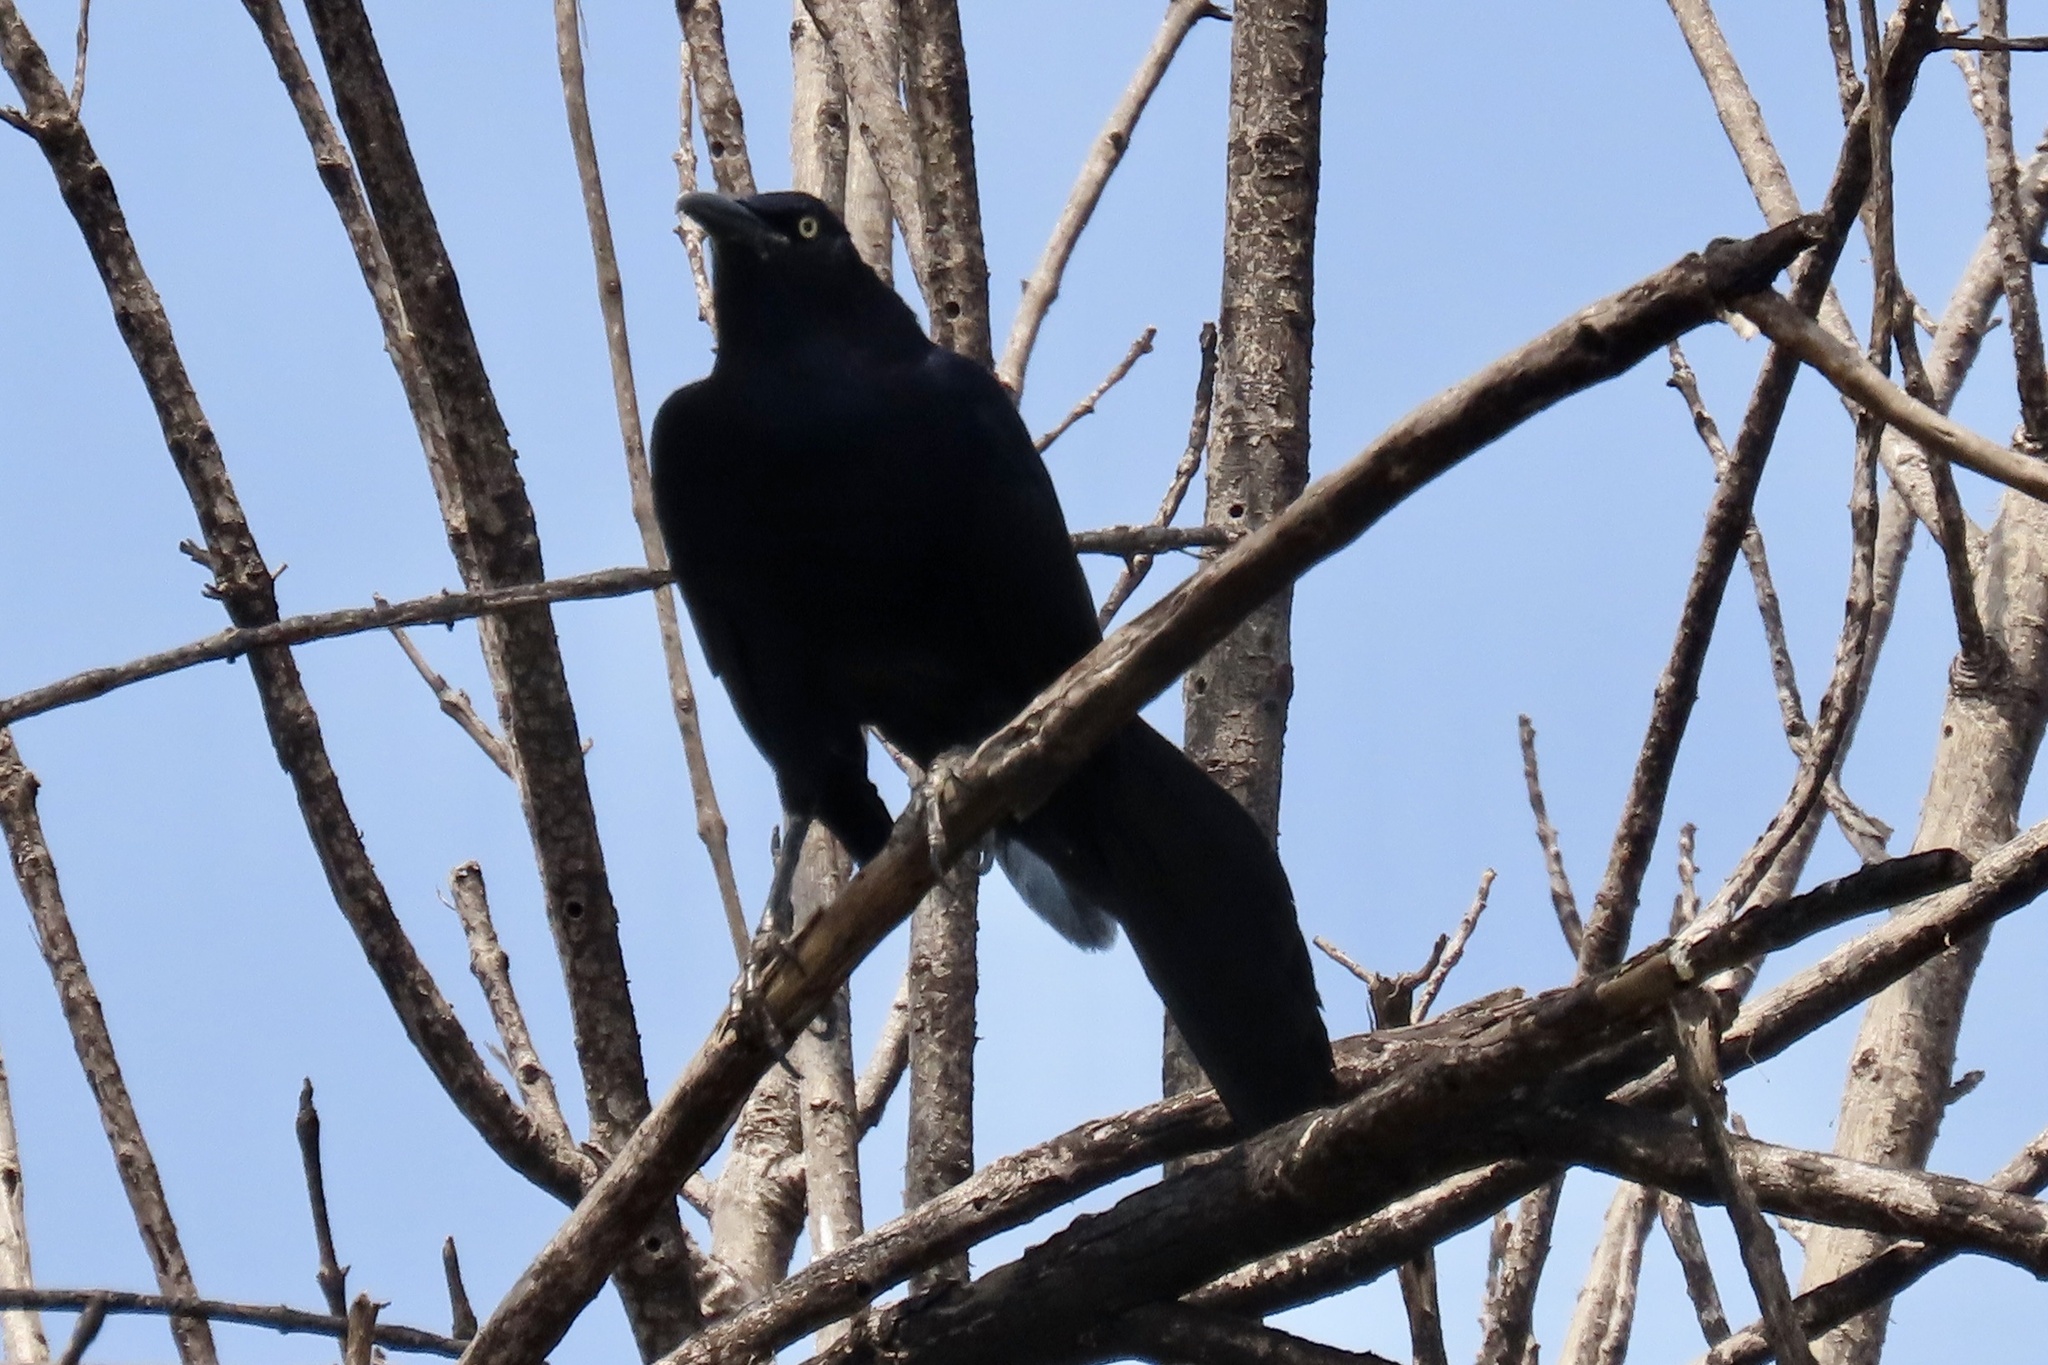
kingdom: Animalia
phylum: Chordata
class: Aves
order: Passeriformes
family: Icteridae
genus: Quiscalus
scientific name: Quiscalus mexicanus
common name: Great-tailed grackle
